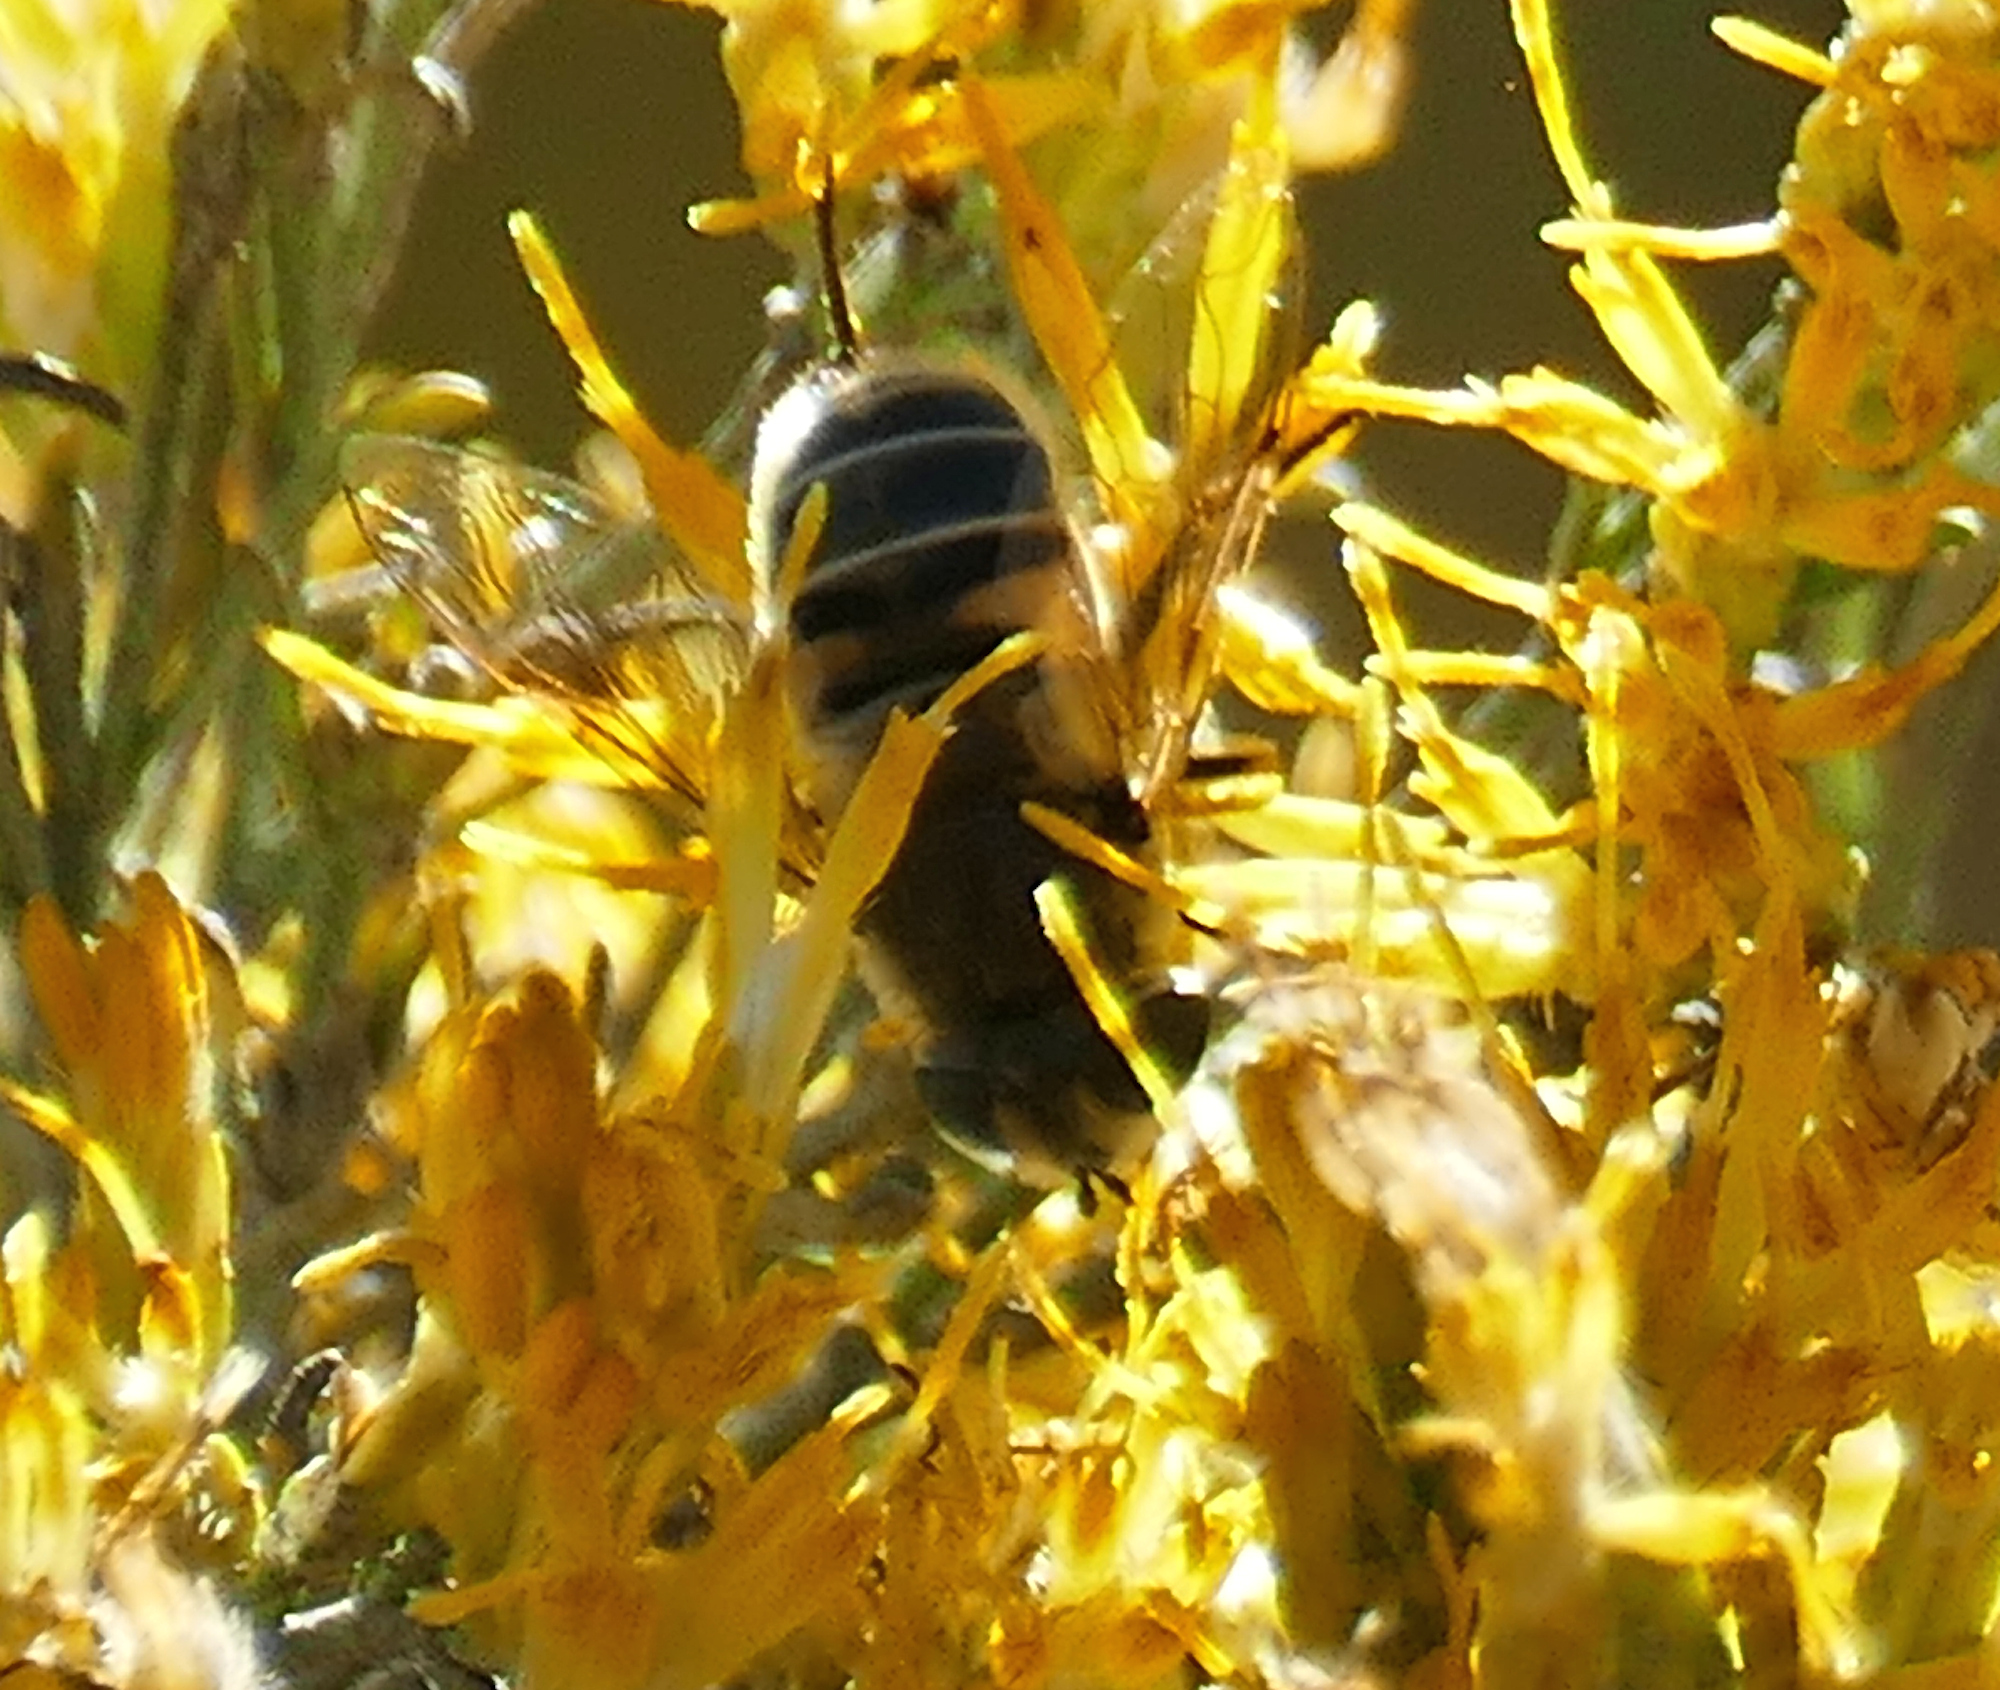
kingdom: Animalia
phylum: Arthropoda
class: Insecta
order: Diptera
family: Syrphidae
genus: Eoseristalis
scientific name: Eoseristalis
